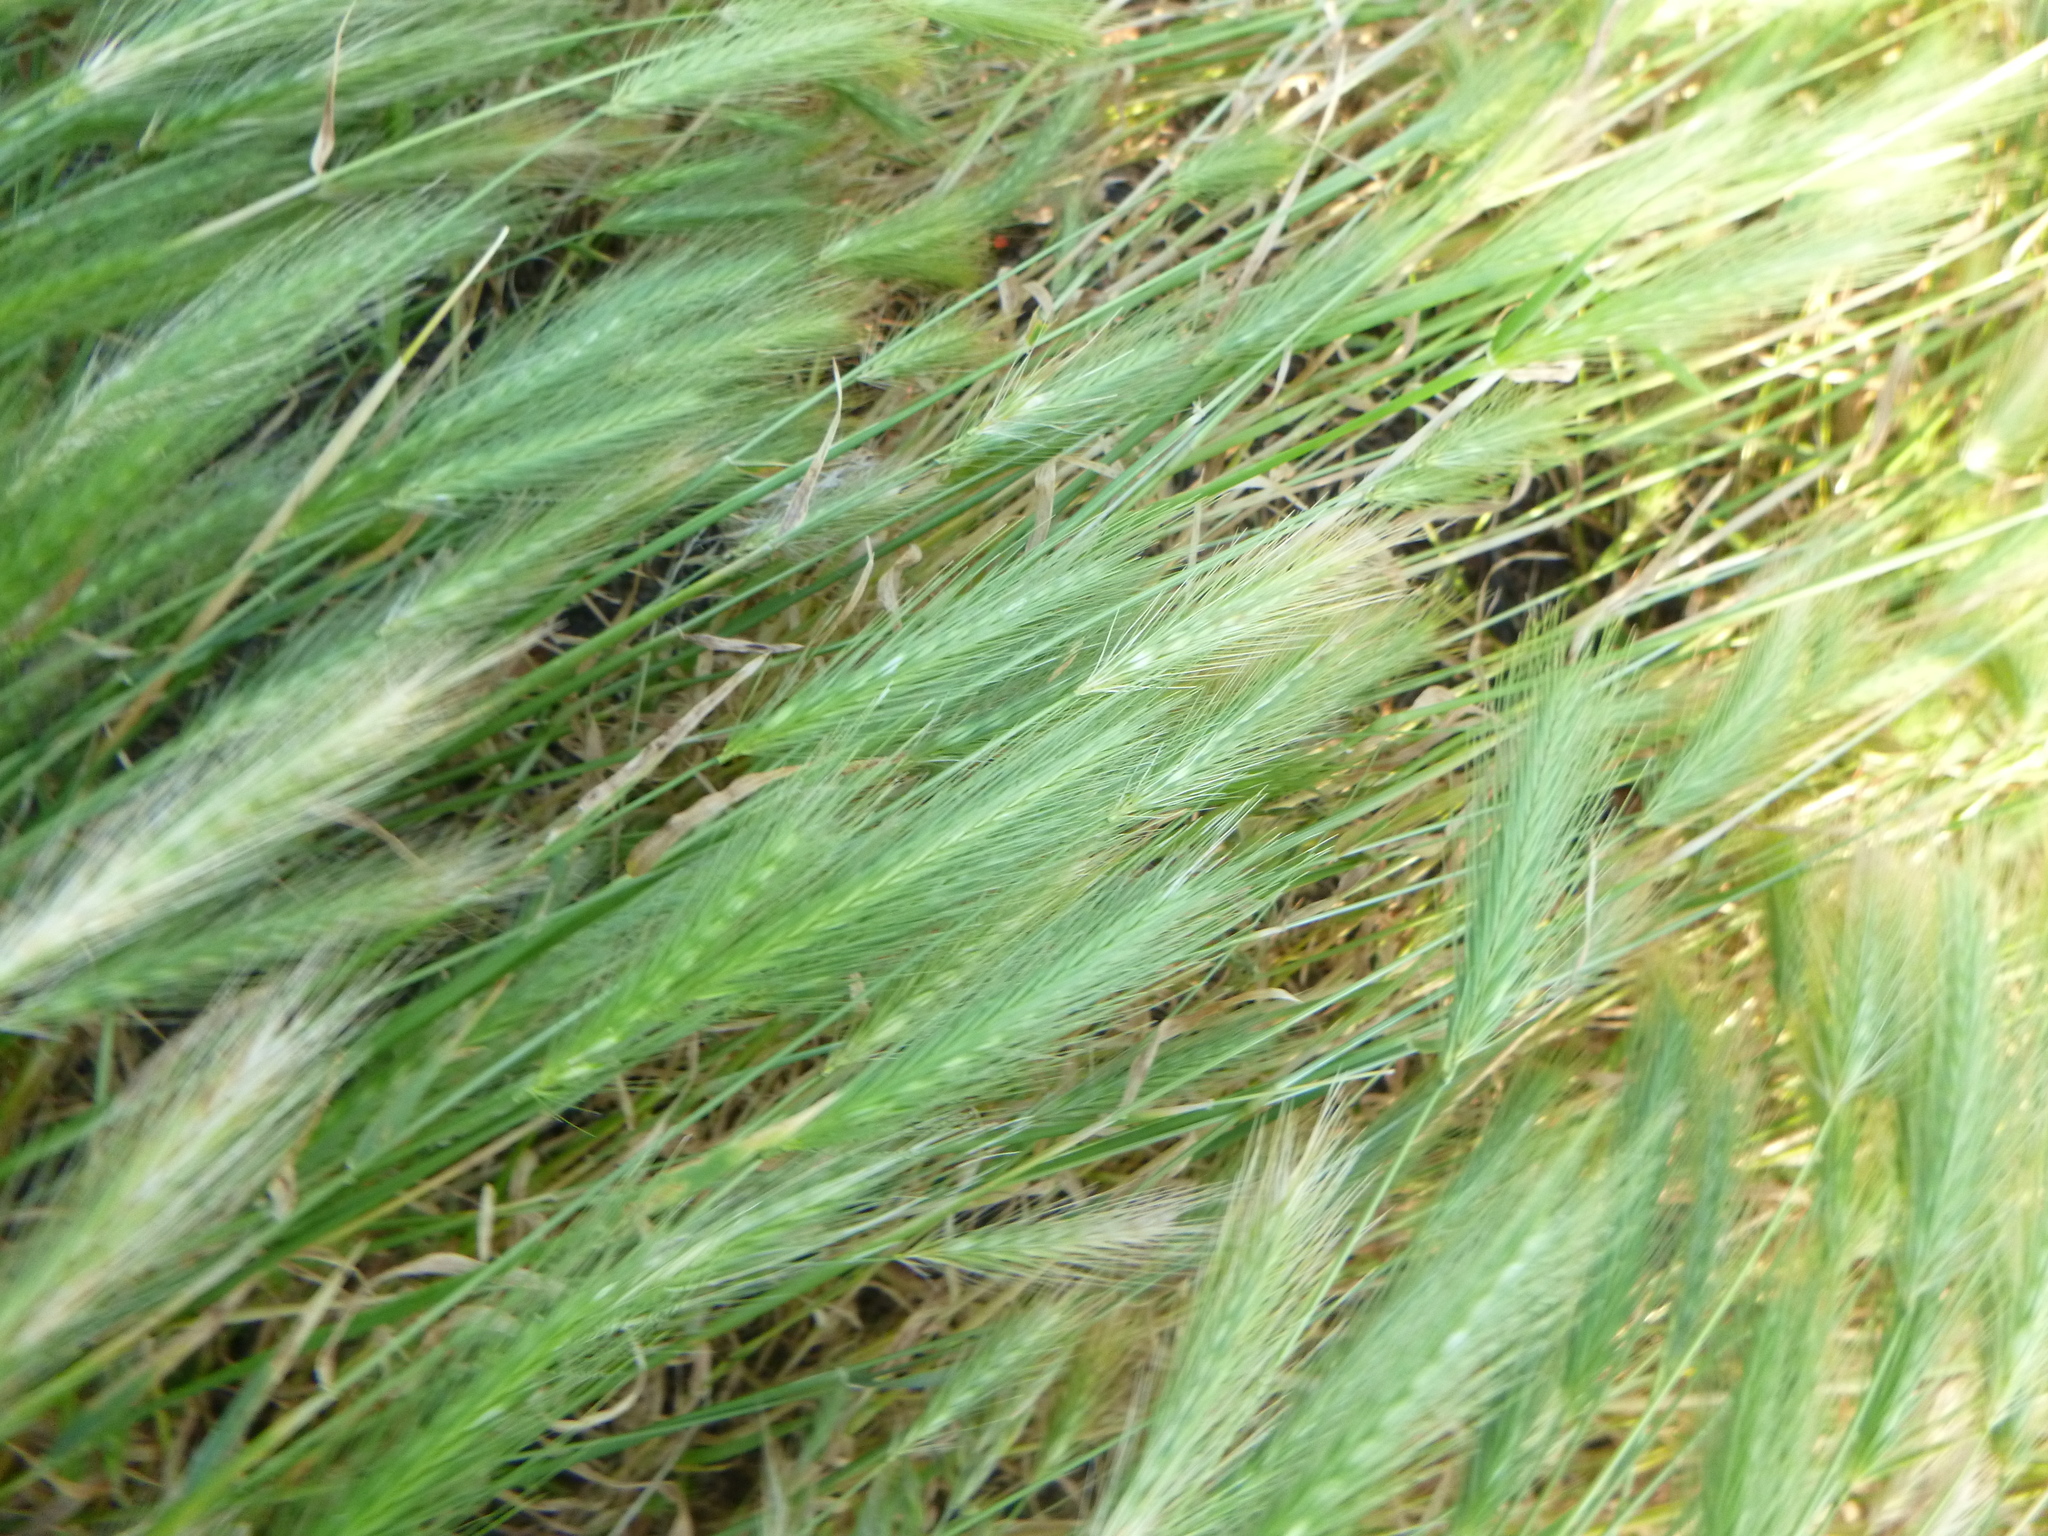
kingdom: Plantae
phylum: Tracheophyta
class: Liliopsida
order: Poales
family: Poaceae
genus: Hordeum
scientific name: Hordeum murinum
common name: Wall barley
